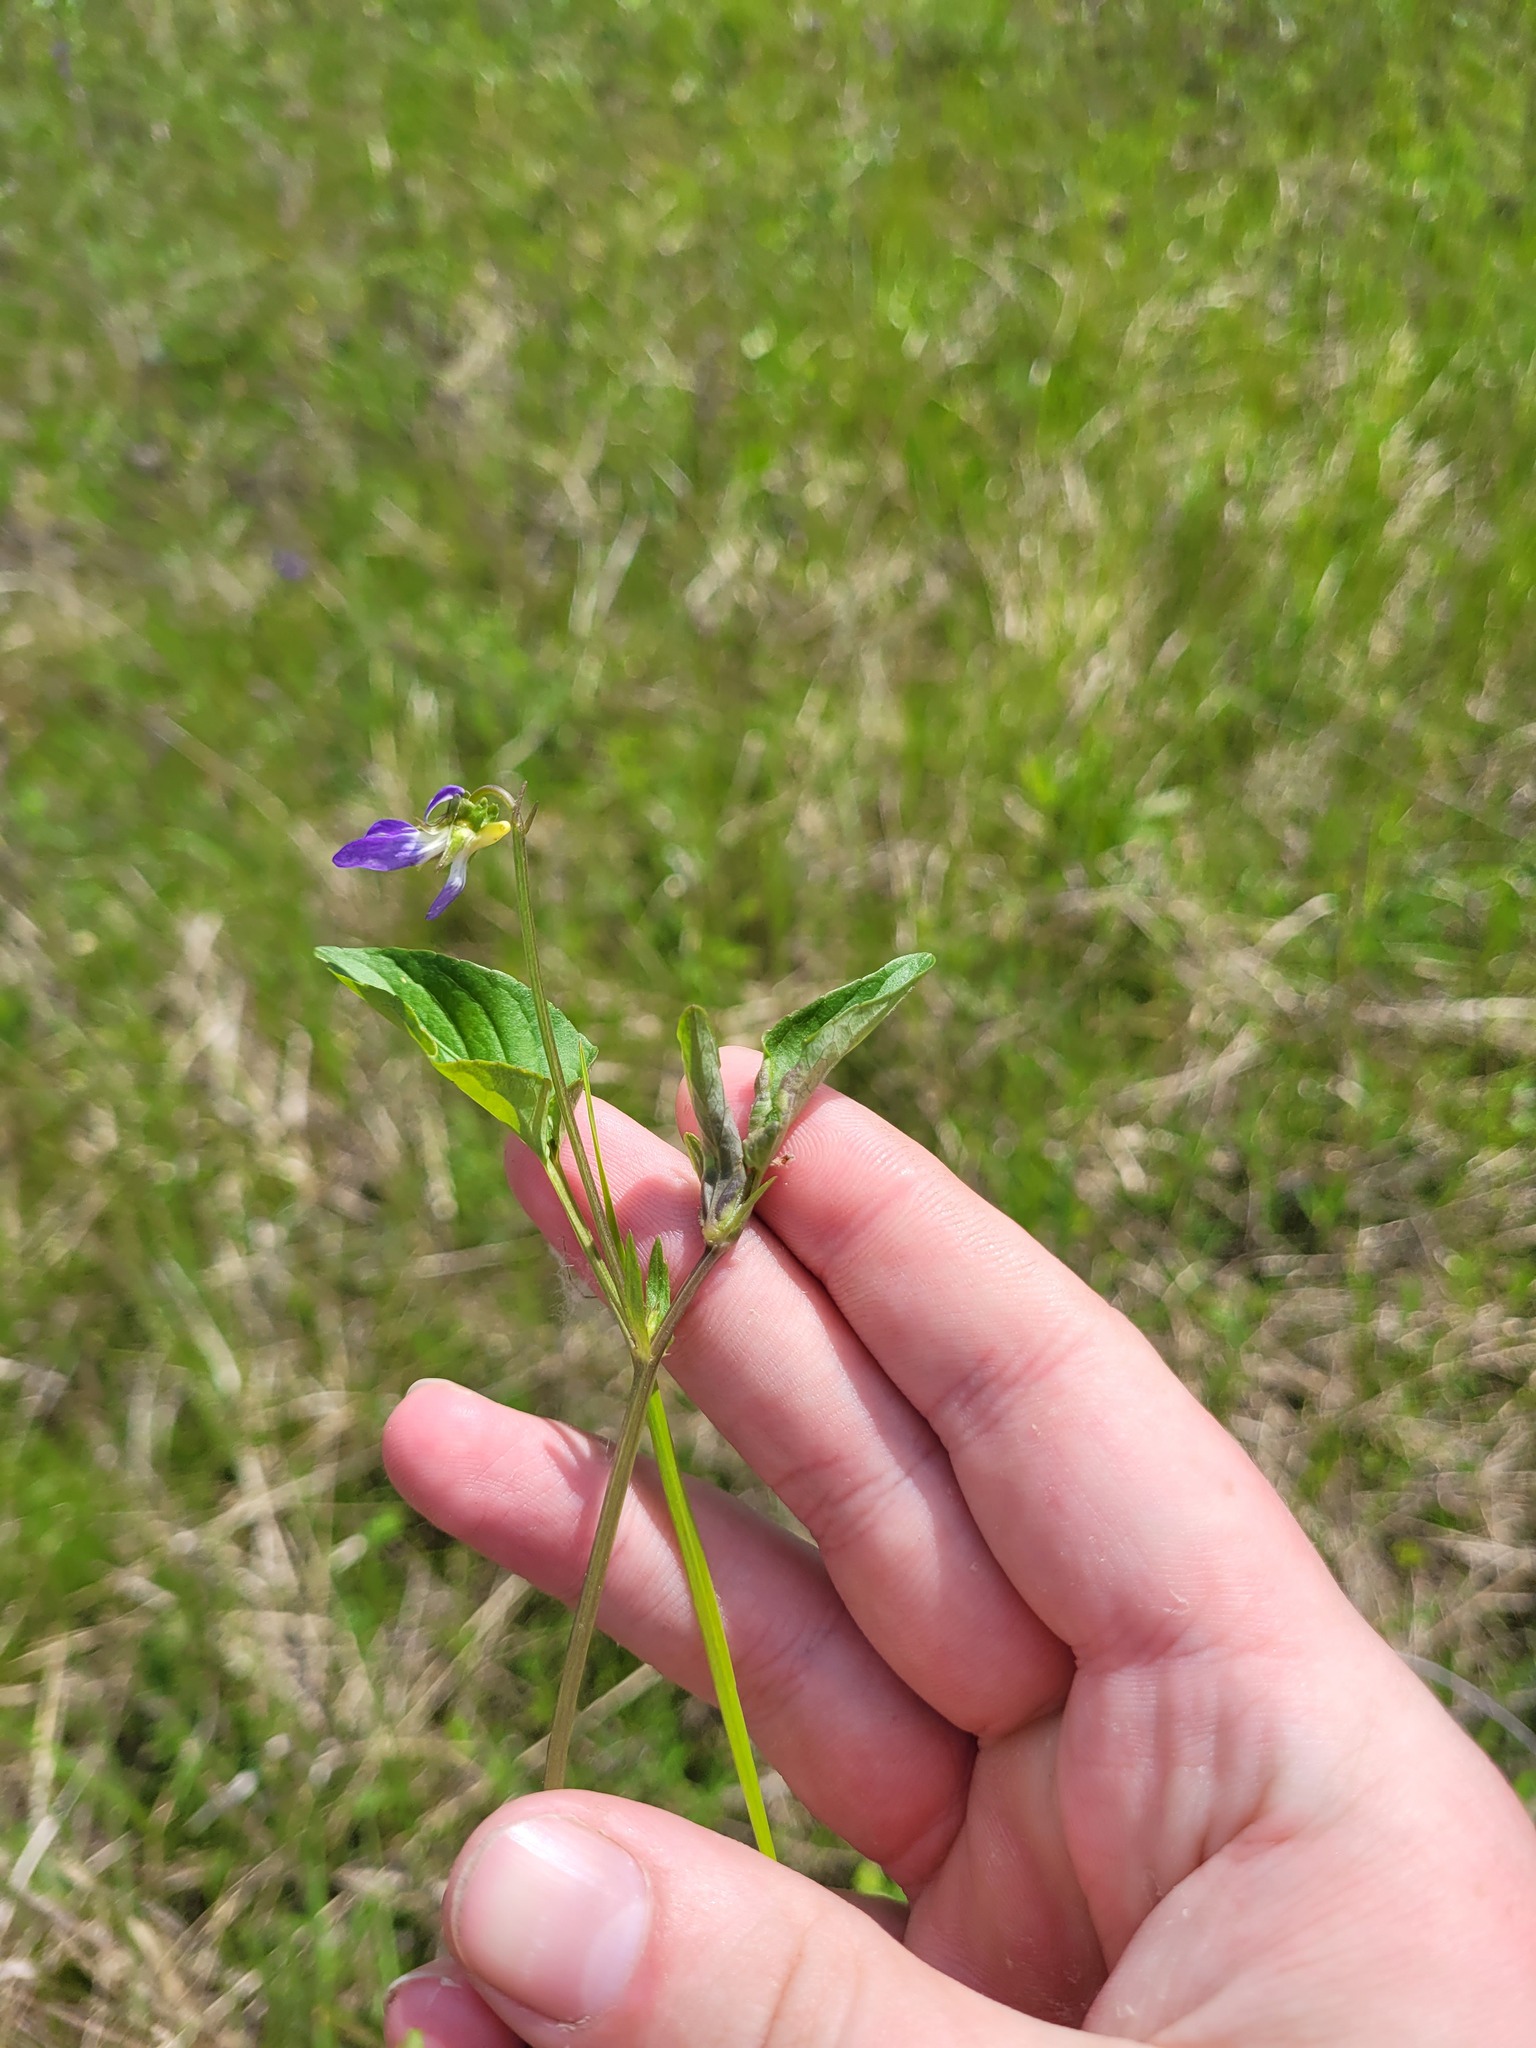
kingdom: Plantae
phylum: Tracheophyta
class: Magnoliopsida
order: Malpighiales
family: Violaceae
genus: Viola
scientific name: Viola canina
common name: Heath dog-violet
